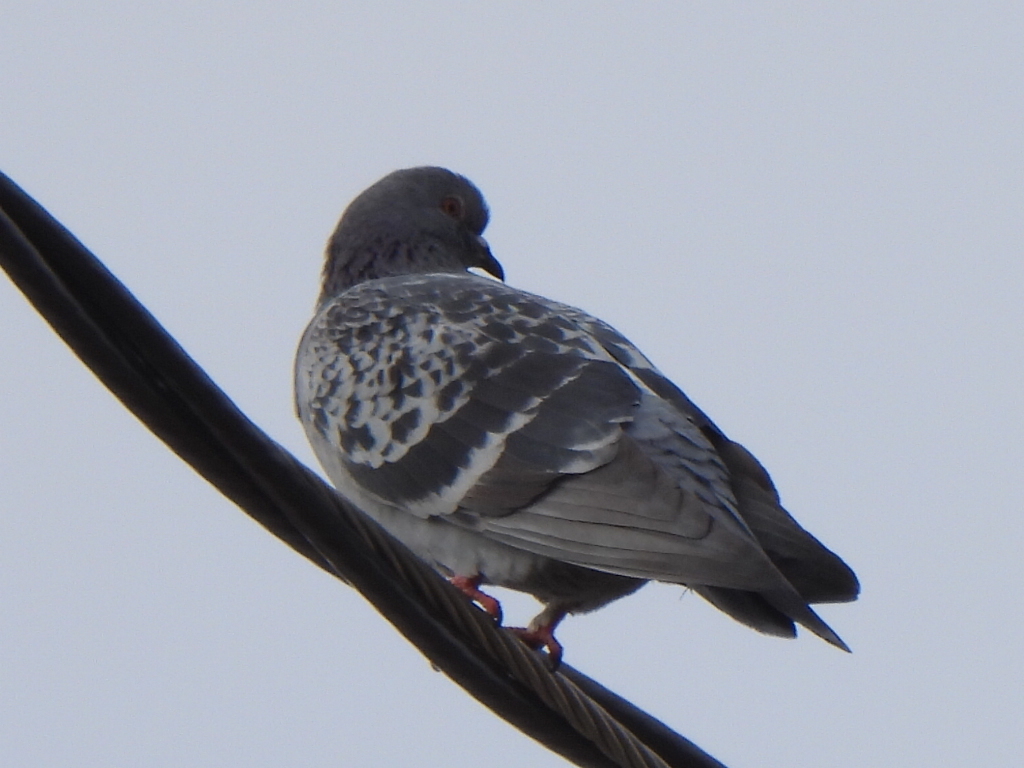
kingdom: Animalia
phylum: Chordata
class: Aves
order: Columbiformes
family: Columbidae
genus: Columba
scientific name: Columba livia
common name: Rock pigeon
